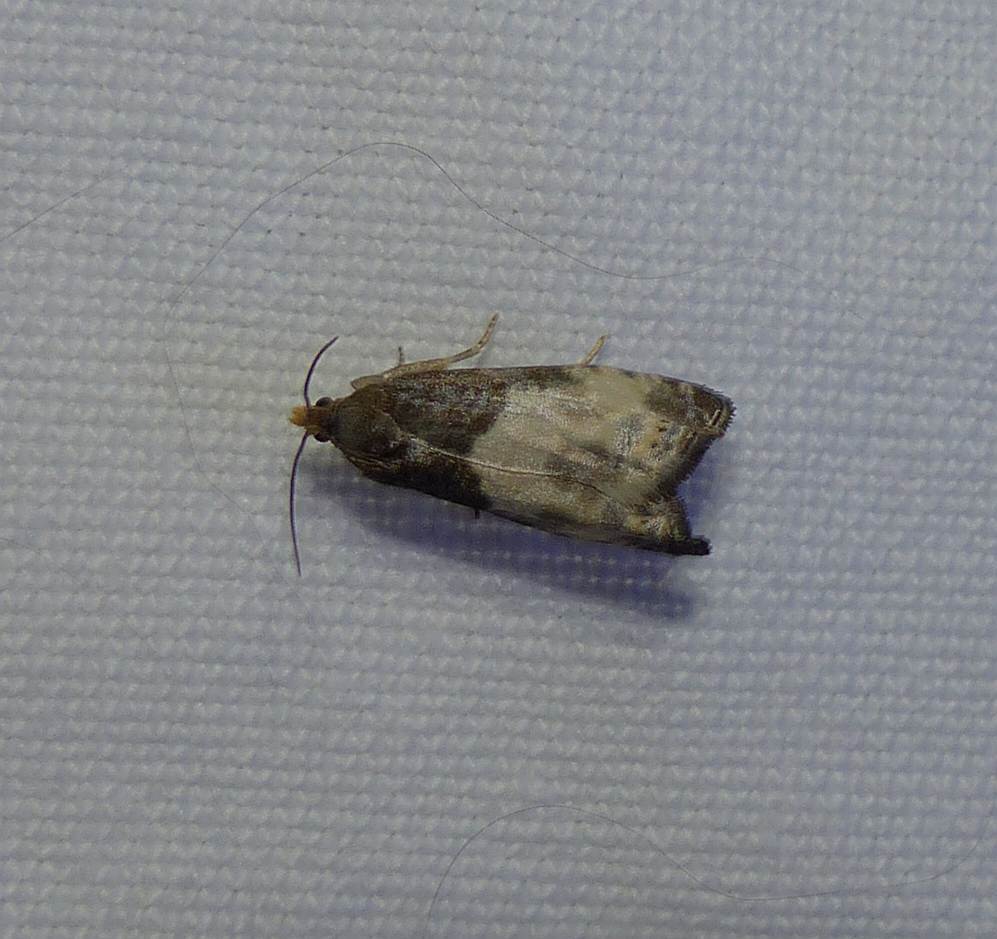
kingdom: Animalia
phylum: Arthropoda
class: Insecta
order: Lepidoptera
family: Tortricidae
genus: Notocelia
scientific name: Notocelia cynosbatella
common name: Yellow-faced bell moth
